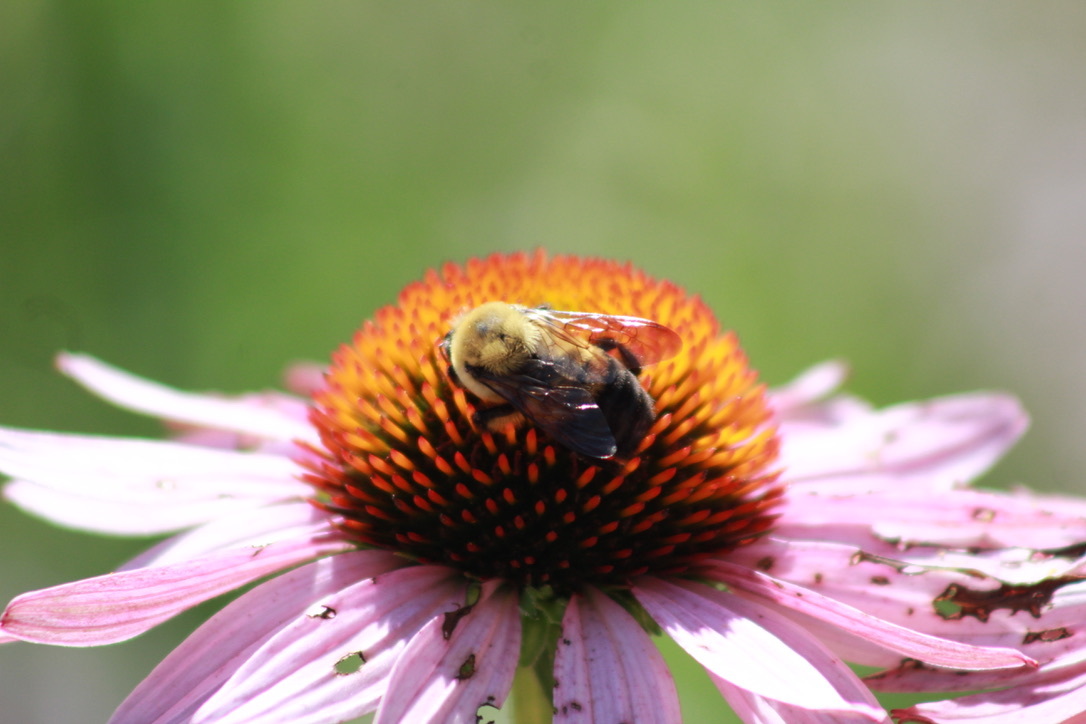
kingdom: Animalia
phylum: Arthropoda
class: Insecta
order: Hymenoptera
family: Apidae
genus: Bombus
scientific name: Bombus griseocollis
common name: Brown-belted bumble bee
